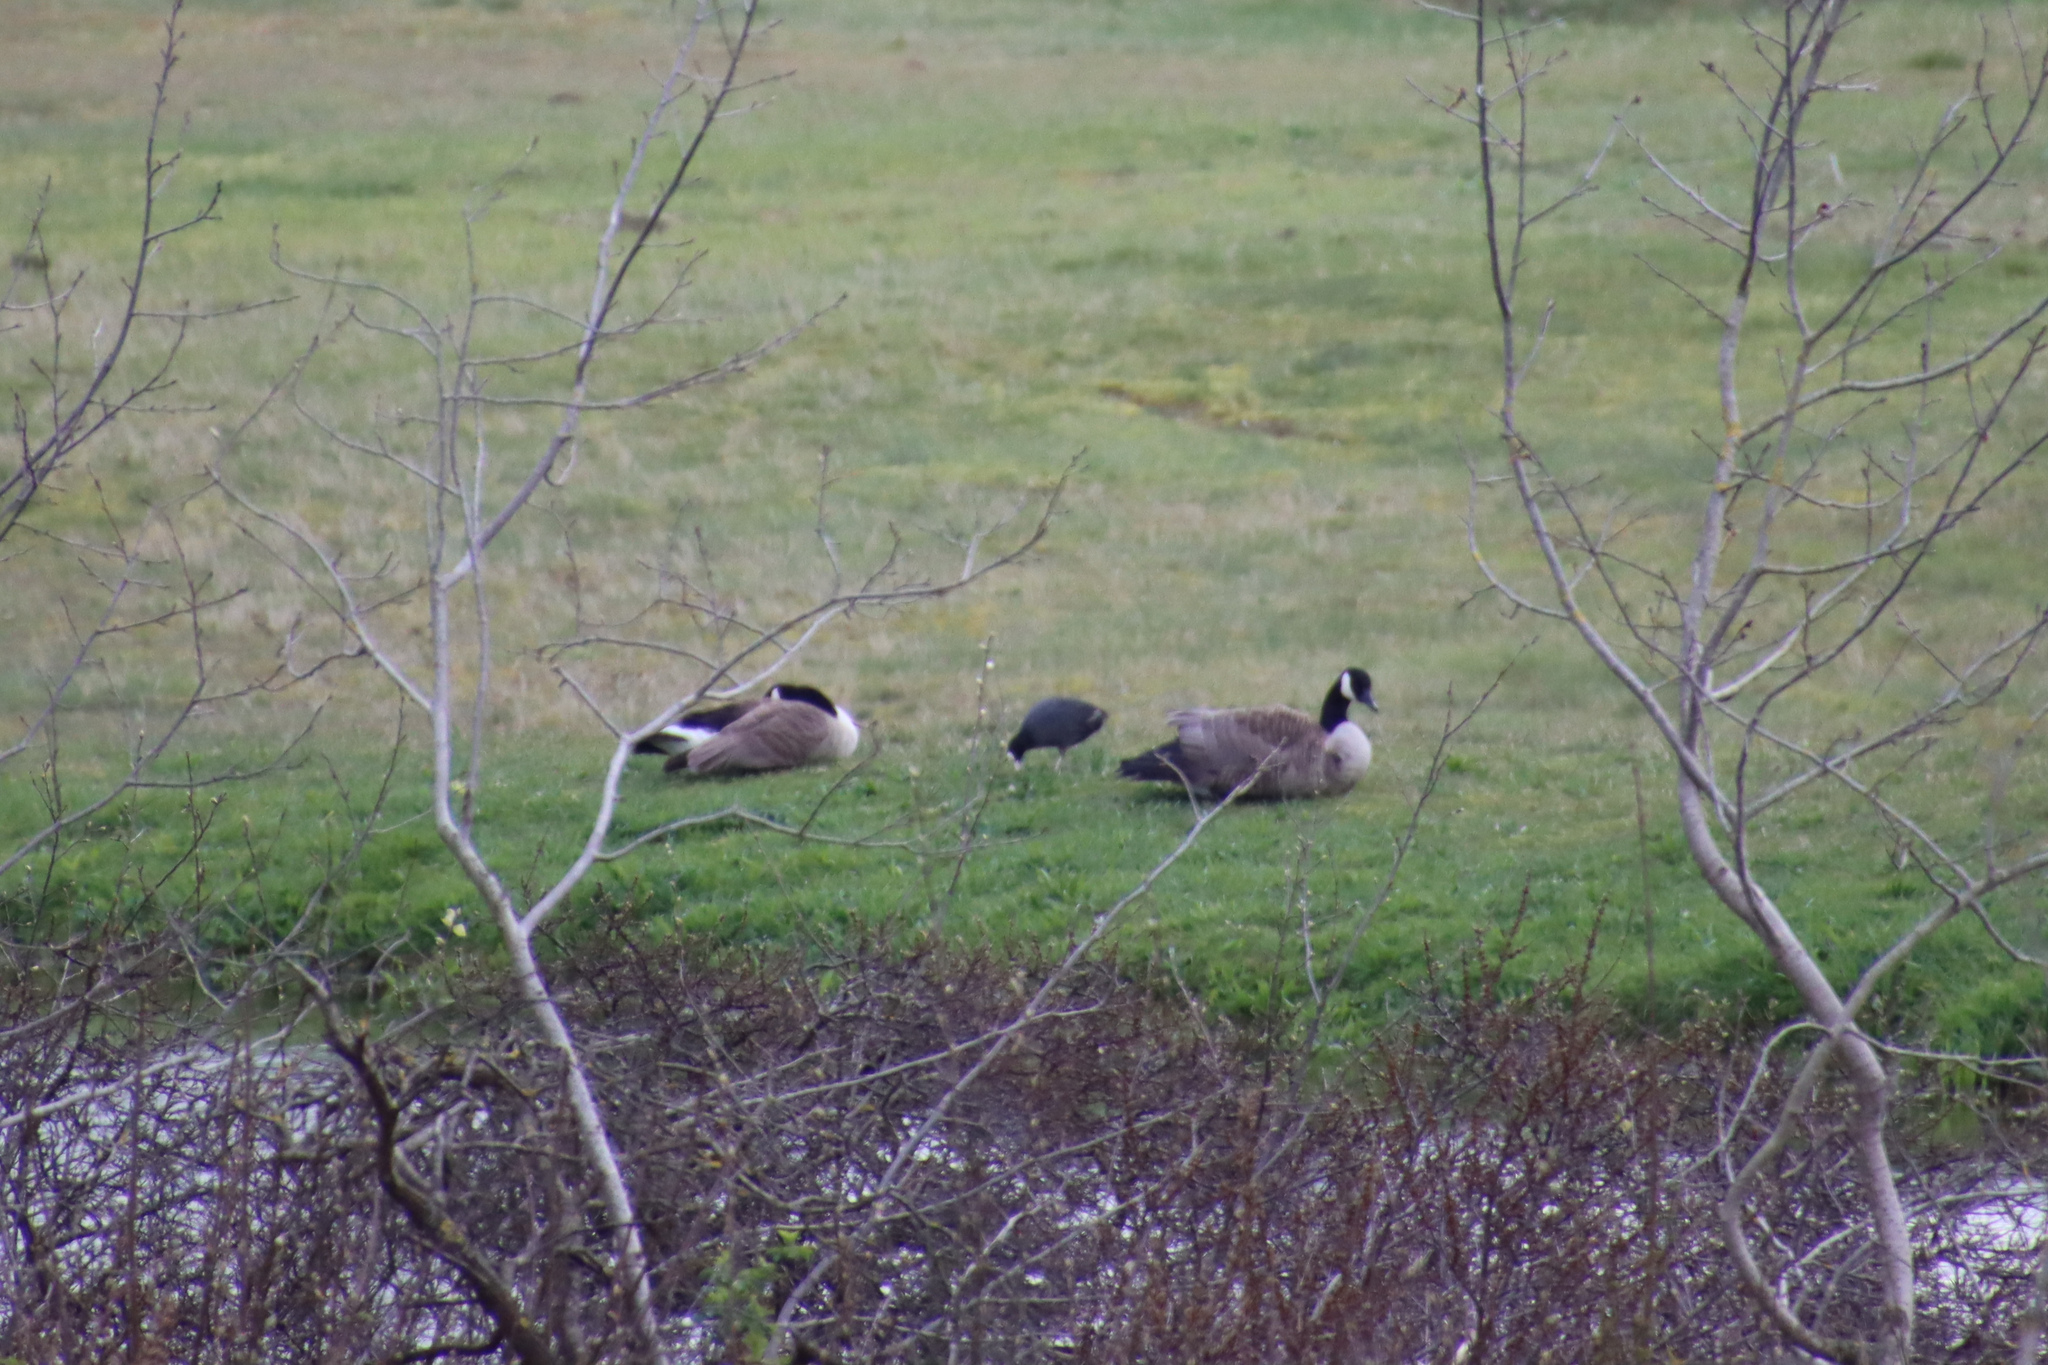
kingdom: Animalia
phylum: Chordata
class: Aves
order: Anseriformes
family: Anatidae
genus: Branta
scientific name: Branta canadensis
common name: Canada goose
